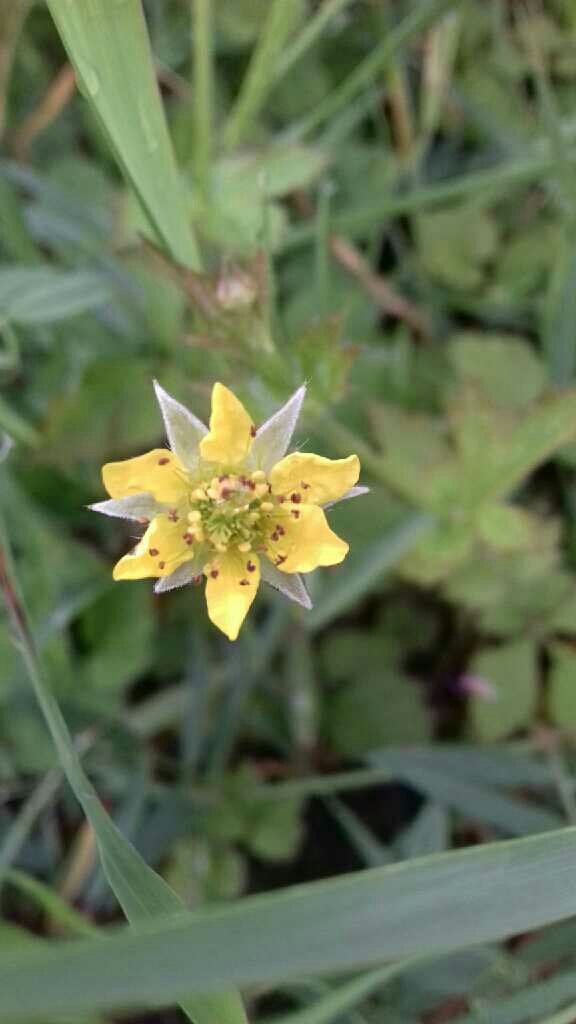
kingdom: Plantae
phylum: Tracheophyta
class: Magnoliopsida
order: Rosales
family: Rosaceae
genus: Geum
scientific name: Geum urbanum
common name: Wood avens
